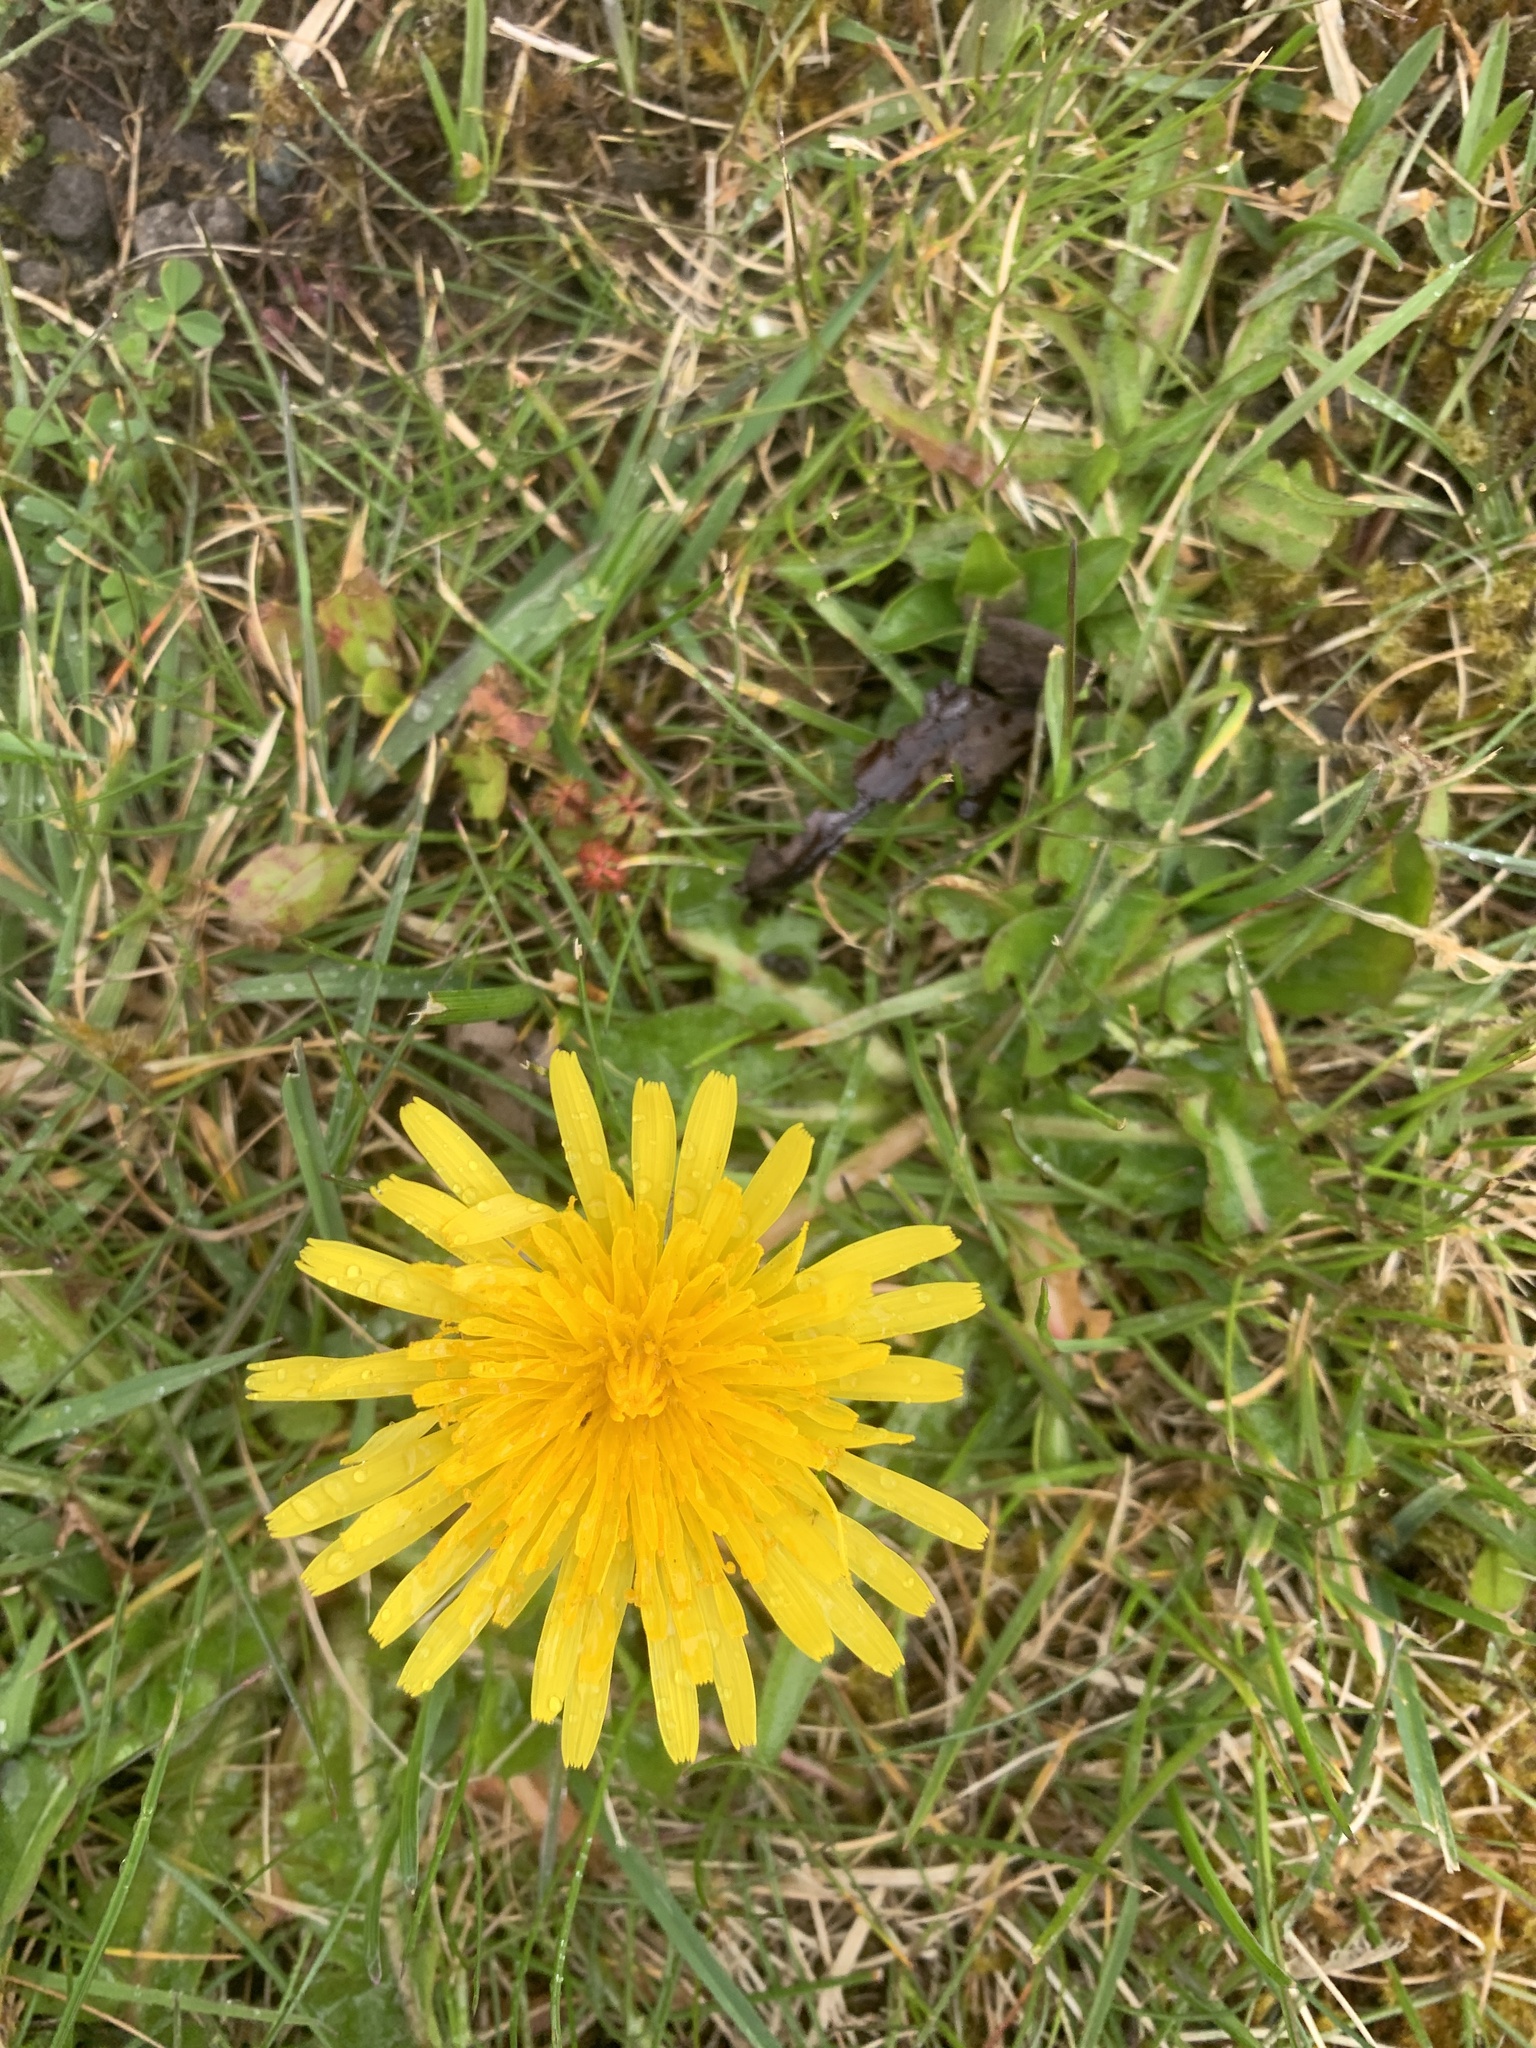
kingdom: Plantae
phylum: Tracheophyta
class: Magnoliopsida
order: Asterales
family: Asteraceae
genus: Taraxacum
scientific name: Taraxacum officinale
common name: Common dandelion
